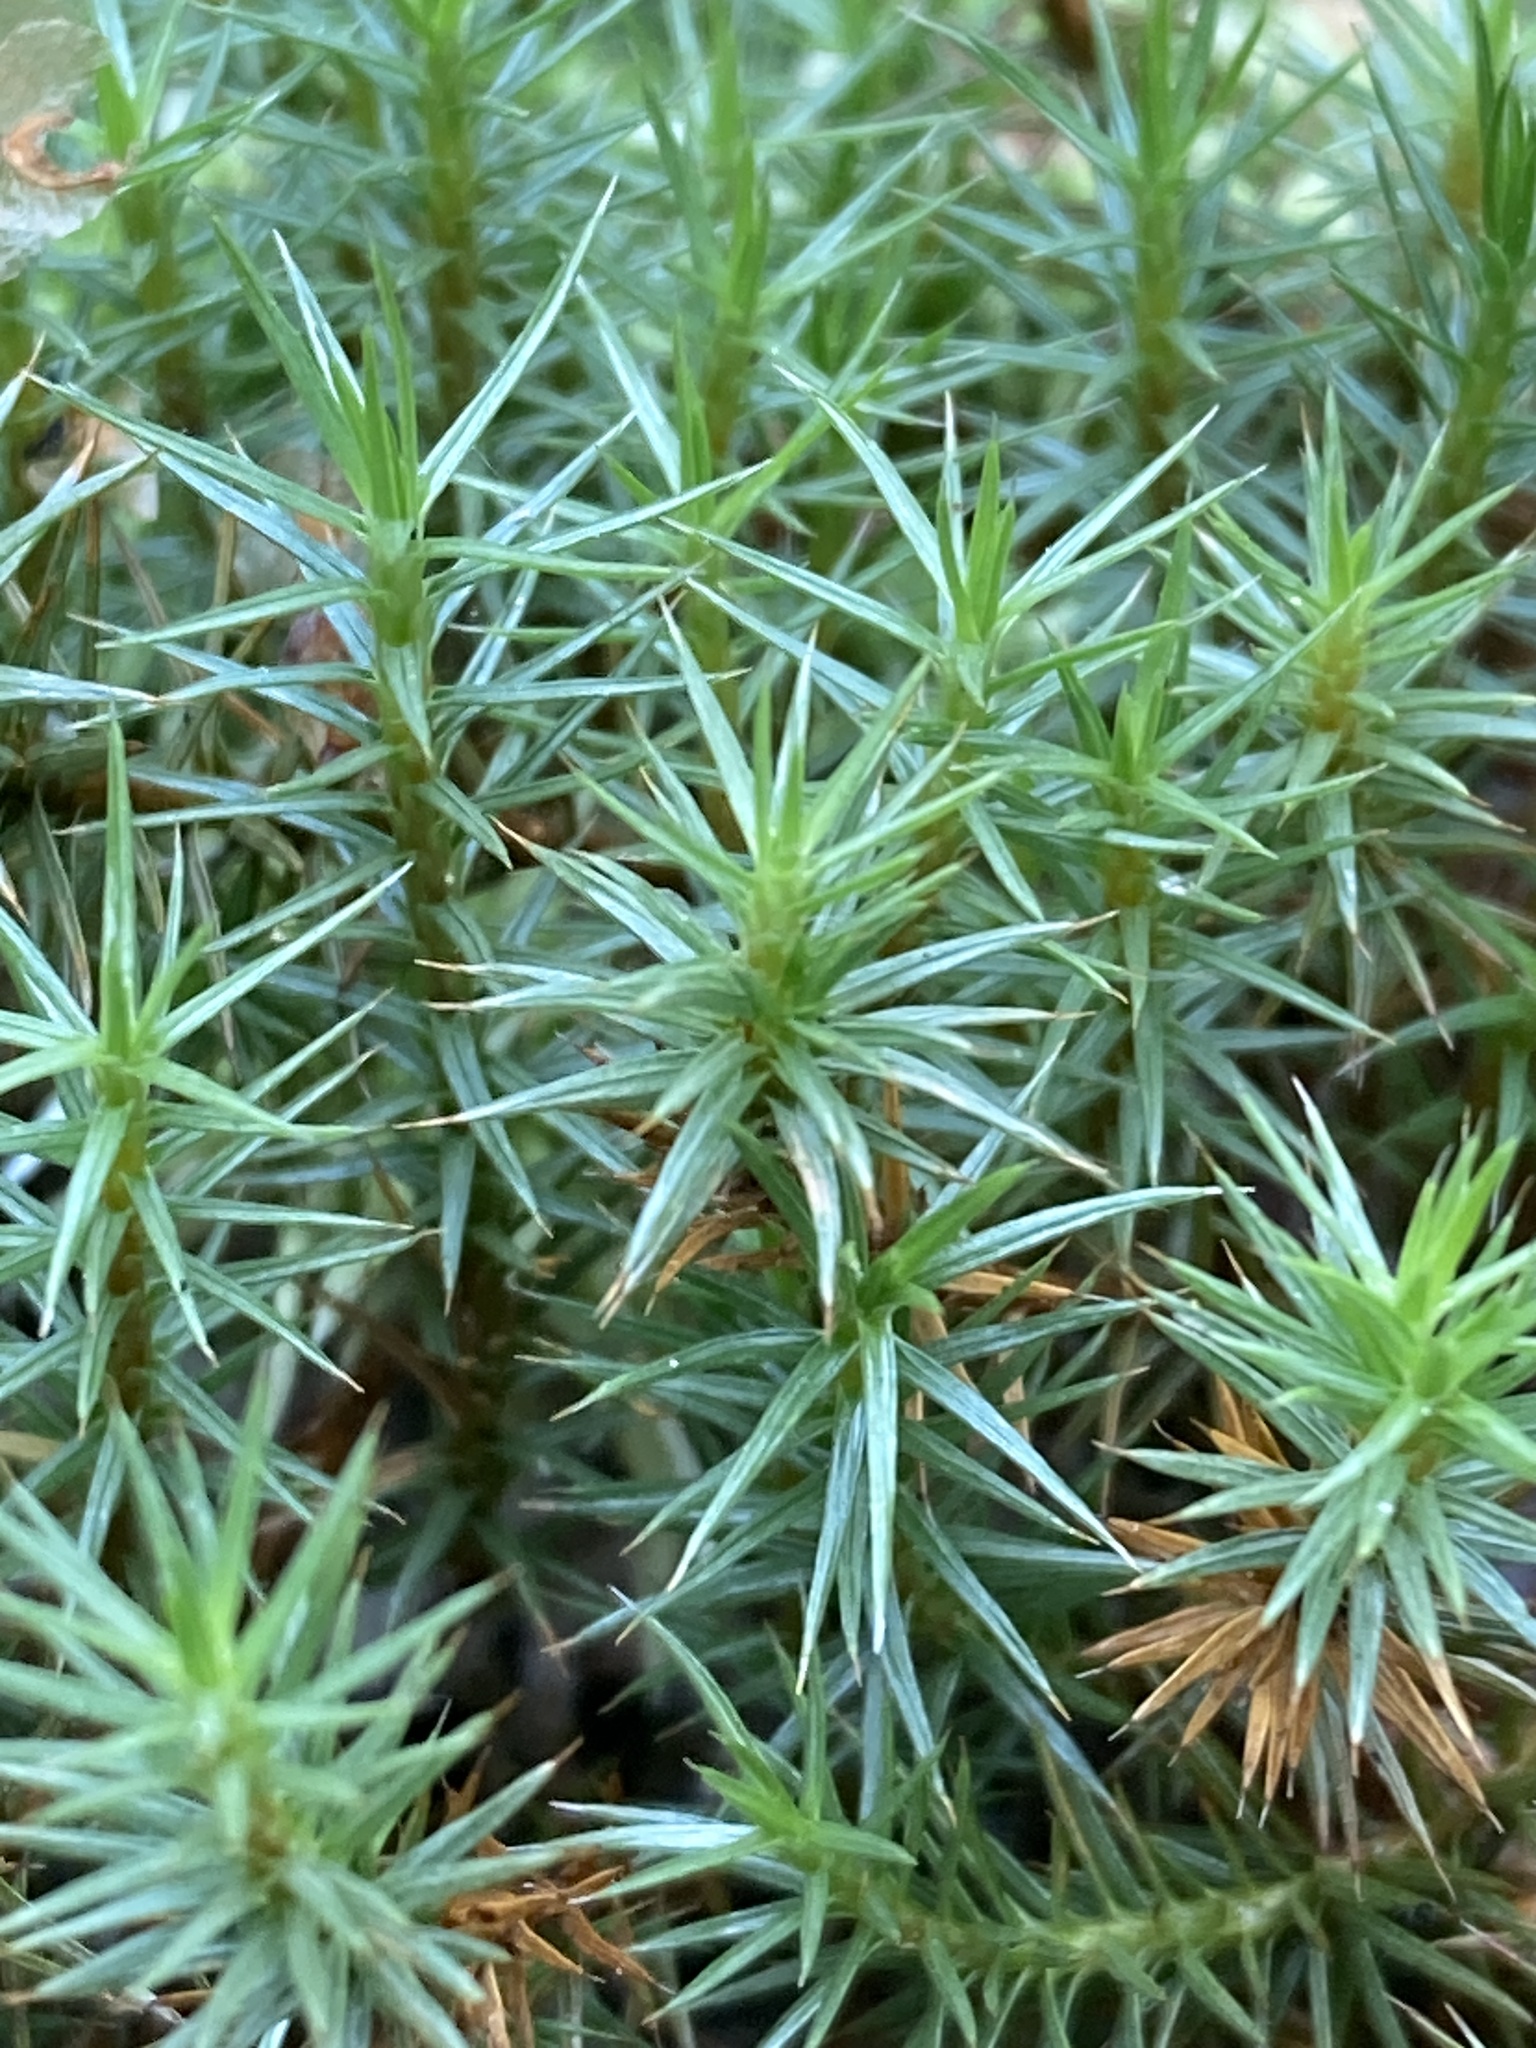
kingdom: Plantae
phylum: Bryophyta
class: Polytrichopsida
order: Polytrichales
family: Polytrichaceae
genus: Polytrichum
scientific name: Polytrichum juniperinum
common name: Juniper haircap moss
